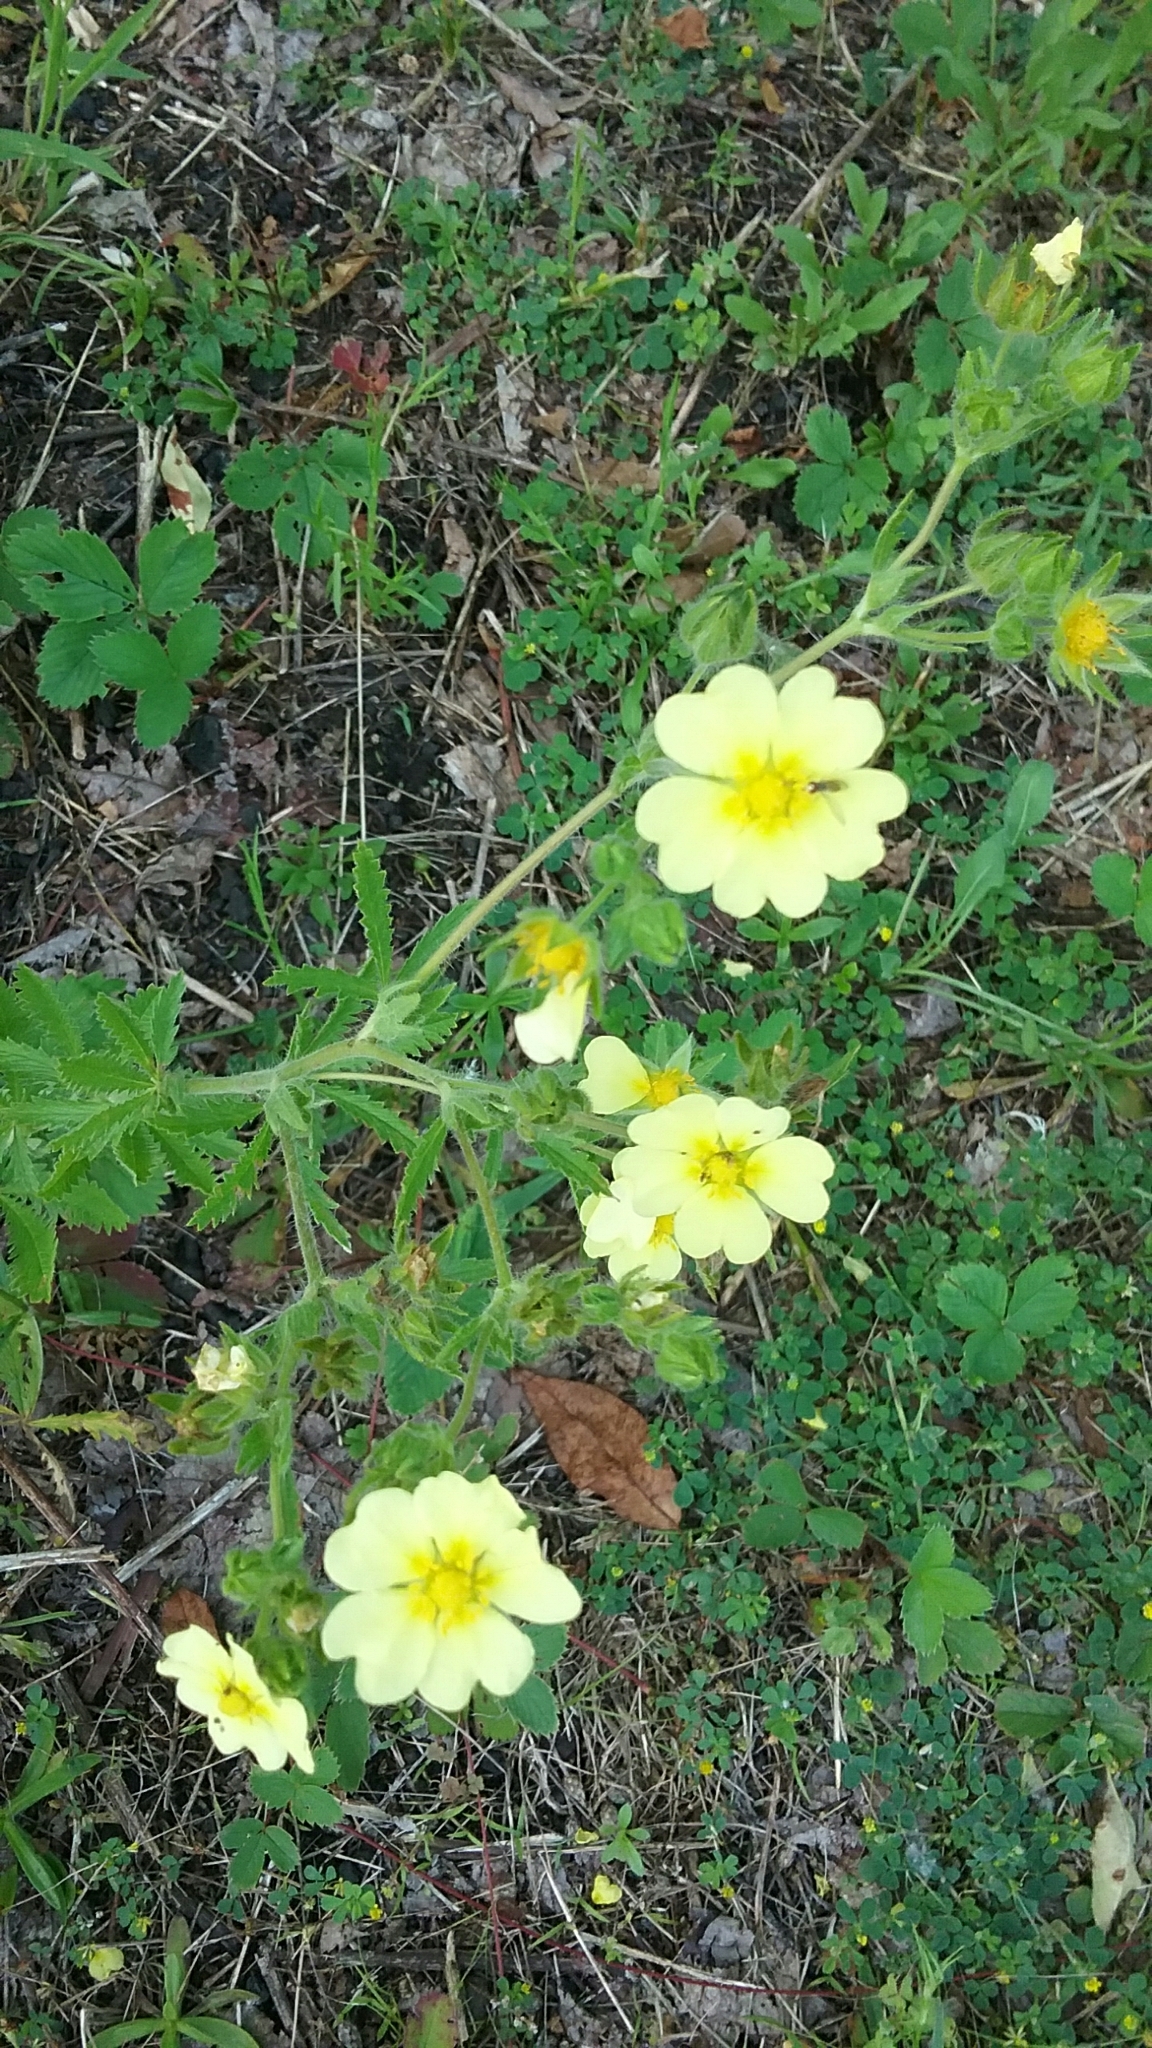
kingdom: Plantae
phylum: Tracheophyta
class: Magnoliopsida
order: Rosales
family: Rosaceae
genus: Potentilla
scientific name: Potentilla recta
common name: Sulphur cinquefoil
